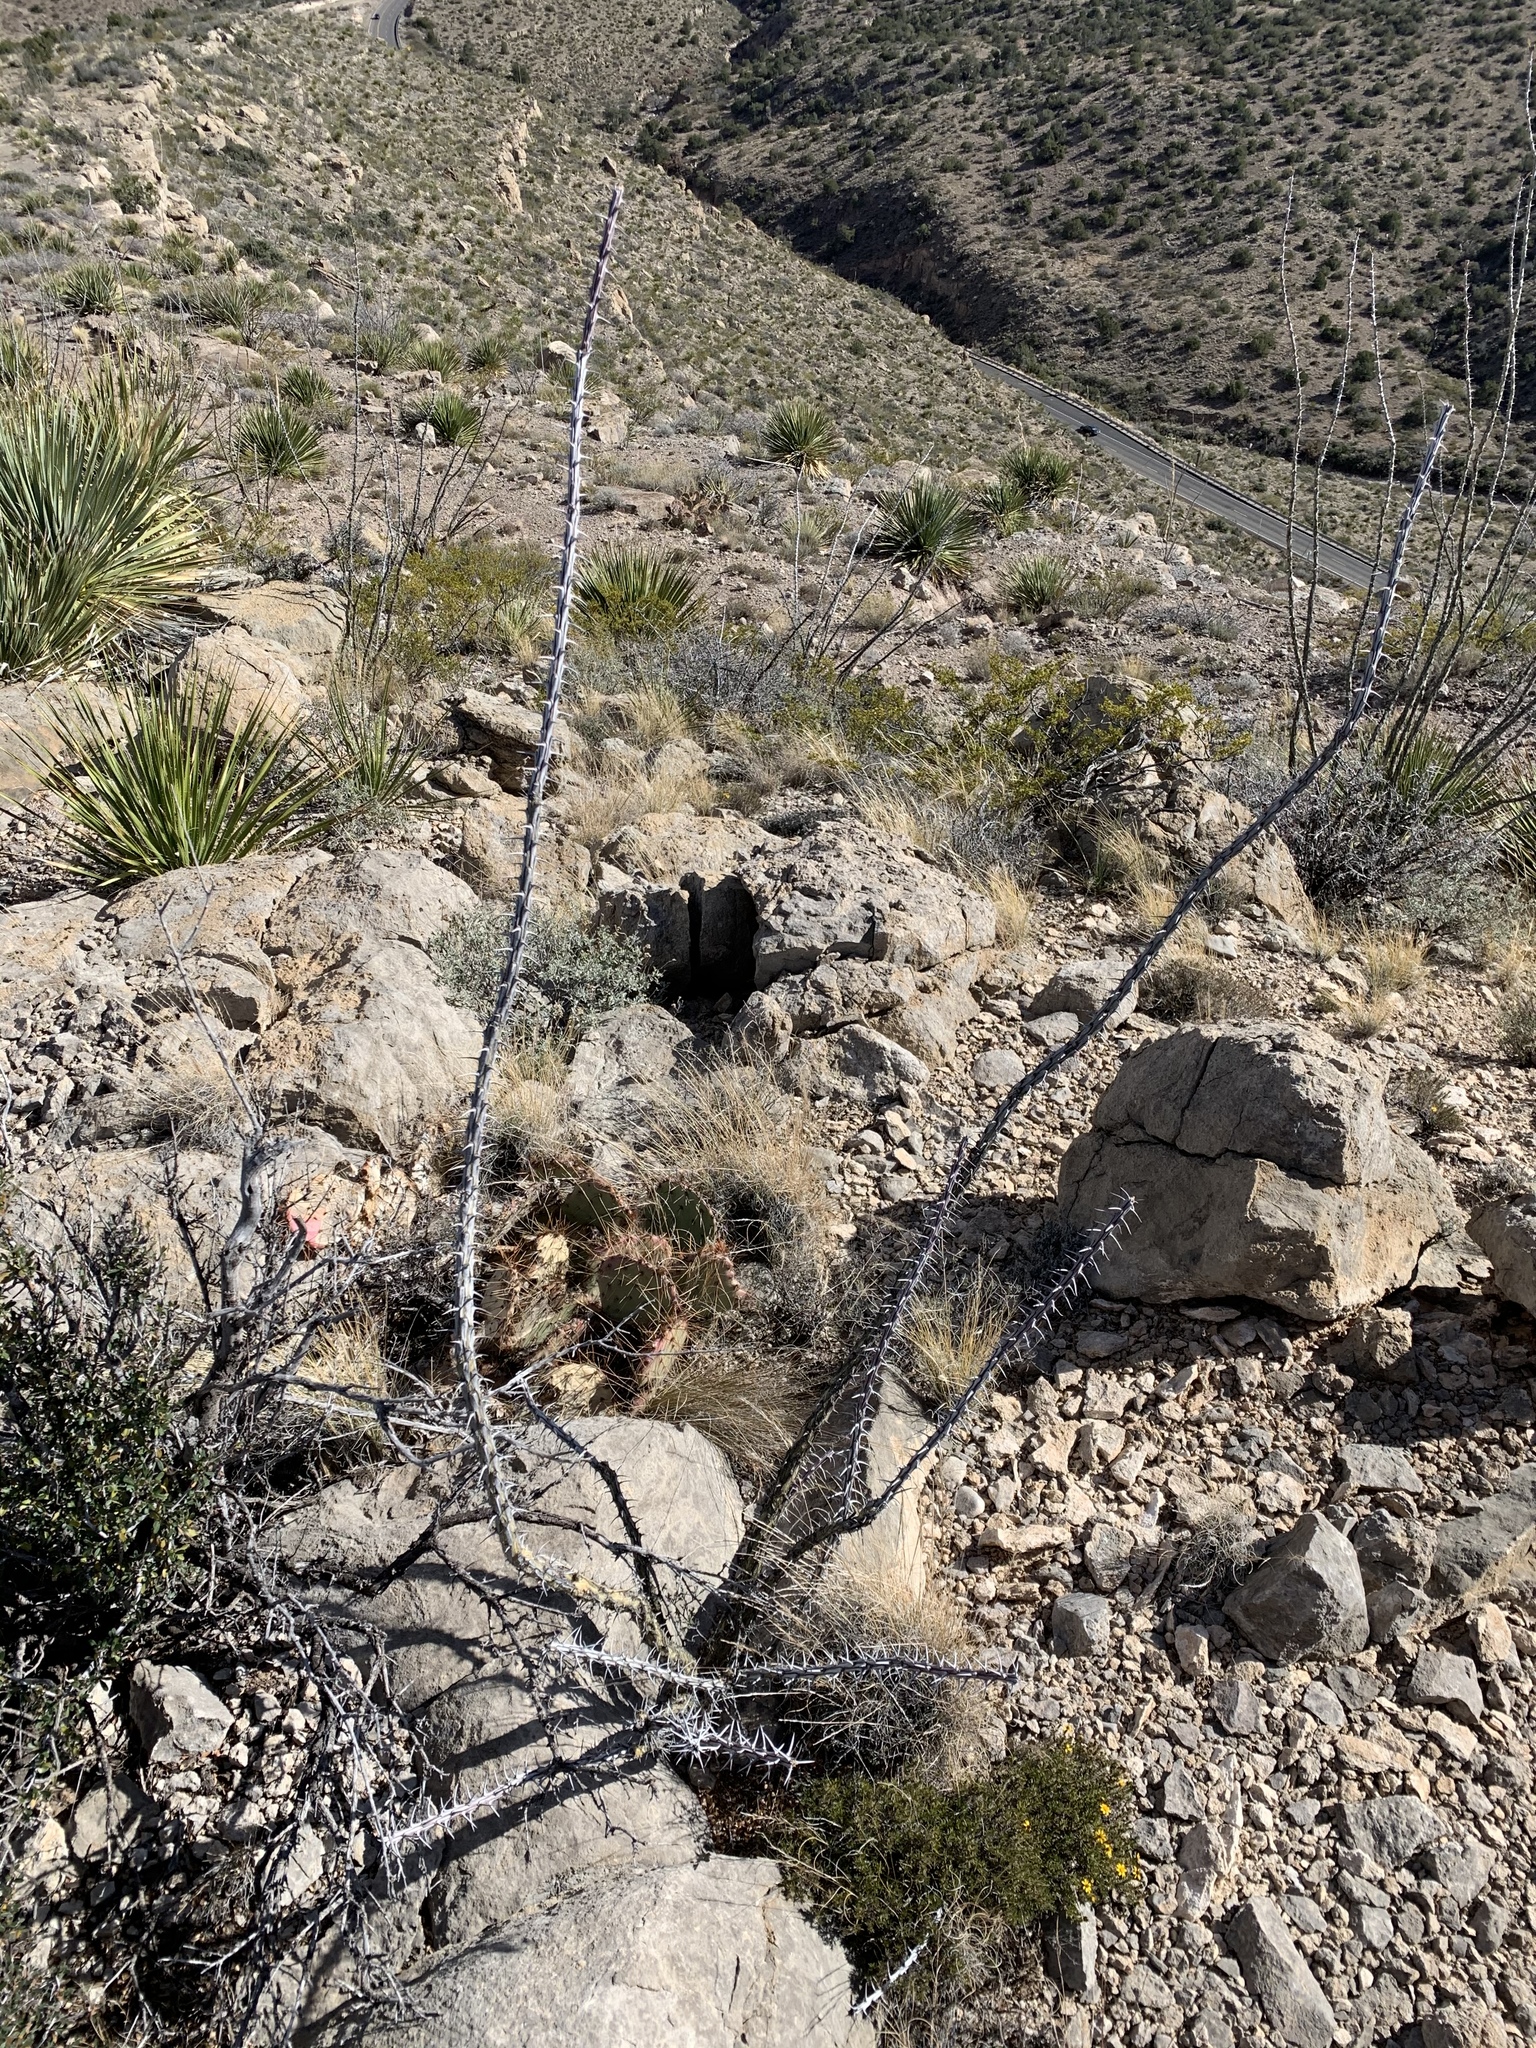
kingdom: Plantae
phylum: Tracheophyta
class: Magnoliopsida
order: Ericales
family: Fouquieriaceae
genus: Fouquieria
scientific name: Fouquieria splendens
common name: Vine-cactus
